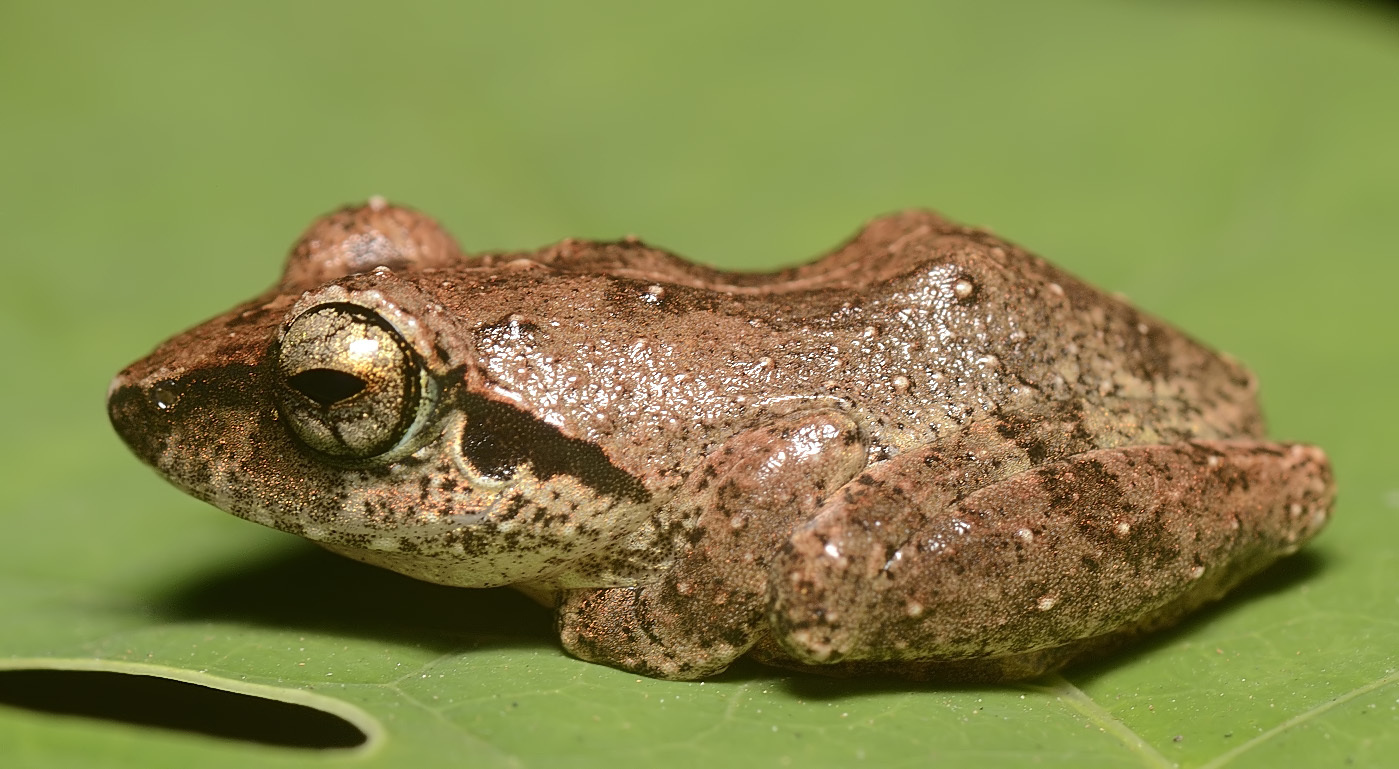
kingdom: Animalia
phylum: Chordata
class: Amphibia
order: Anura
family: Rhacophoridae
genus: Pseudophilautus
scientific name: Pseudophilautus wynaadensis
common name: Dark-eared bush frog
